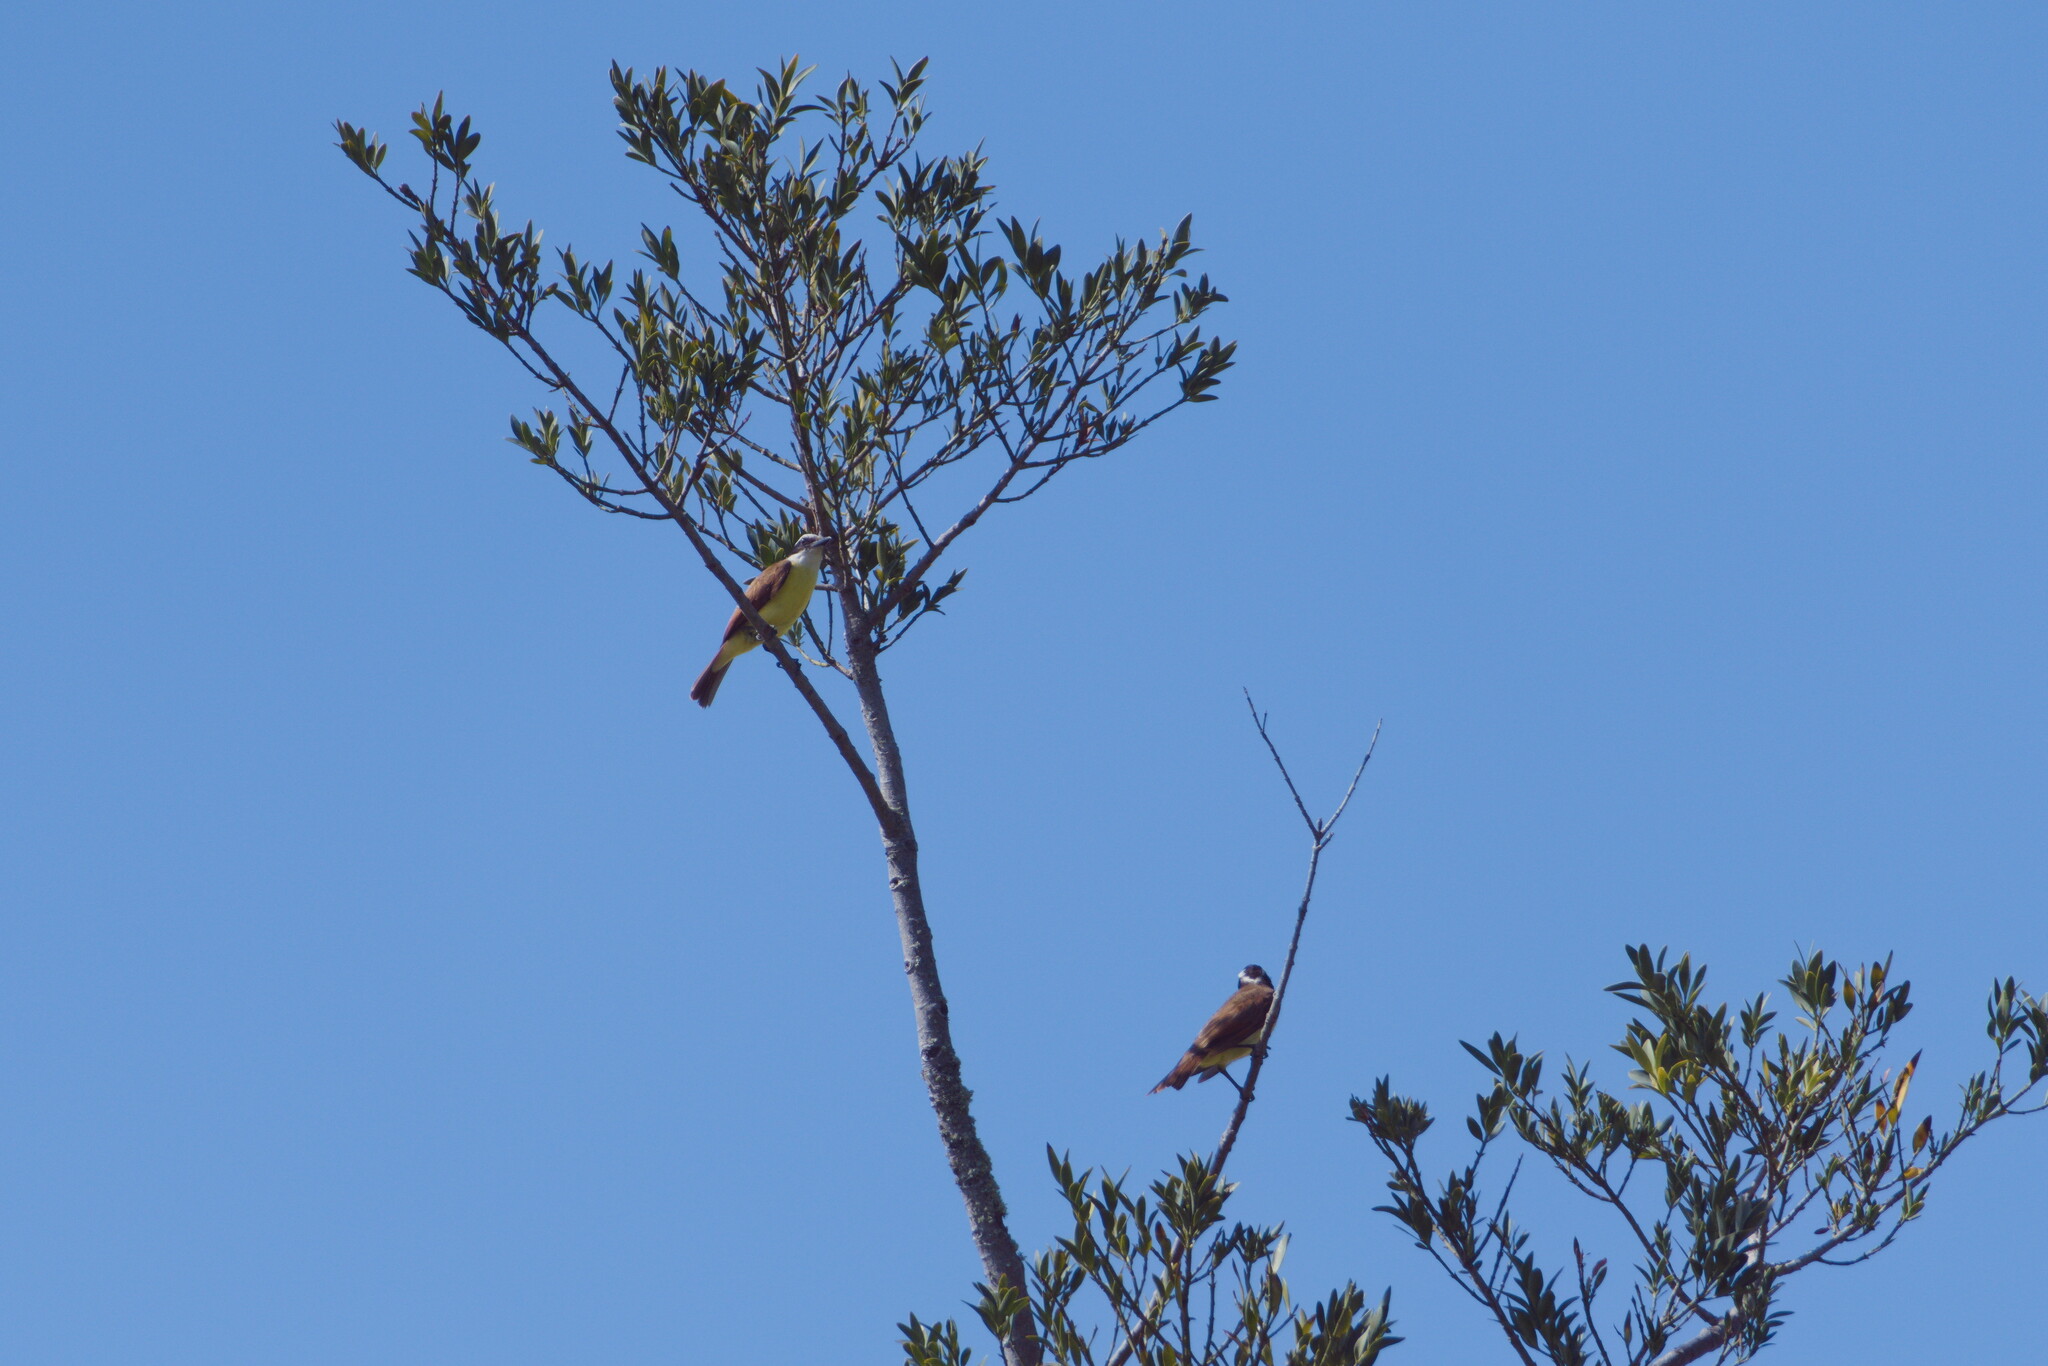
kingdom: Animalia
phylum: Chordata
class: Aves
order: Passeriformes
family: Tyrannidae
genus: Pitangus
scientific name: Pitangus sulphuratus
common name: Great kiskadee
